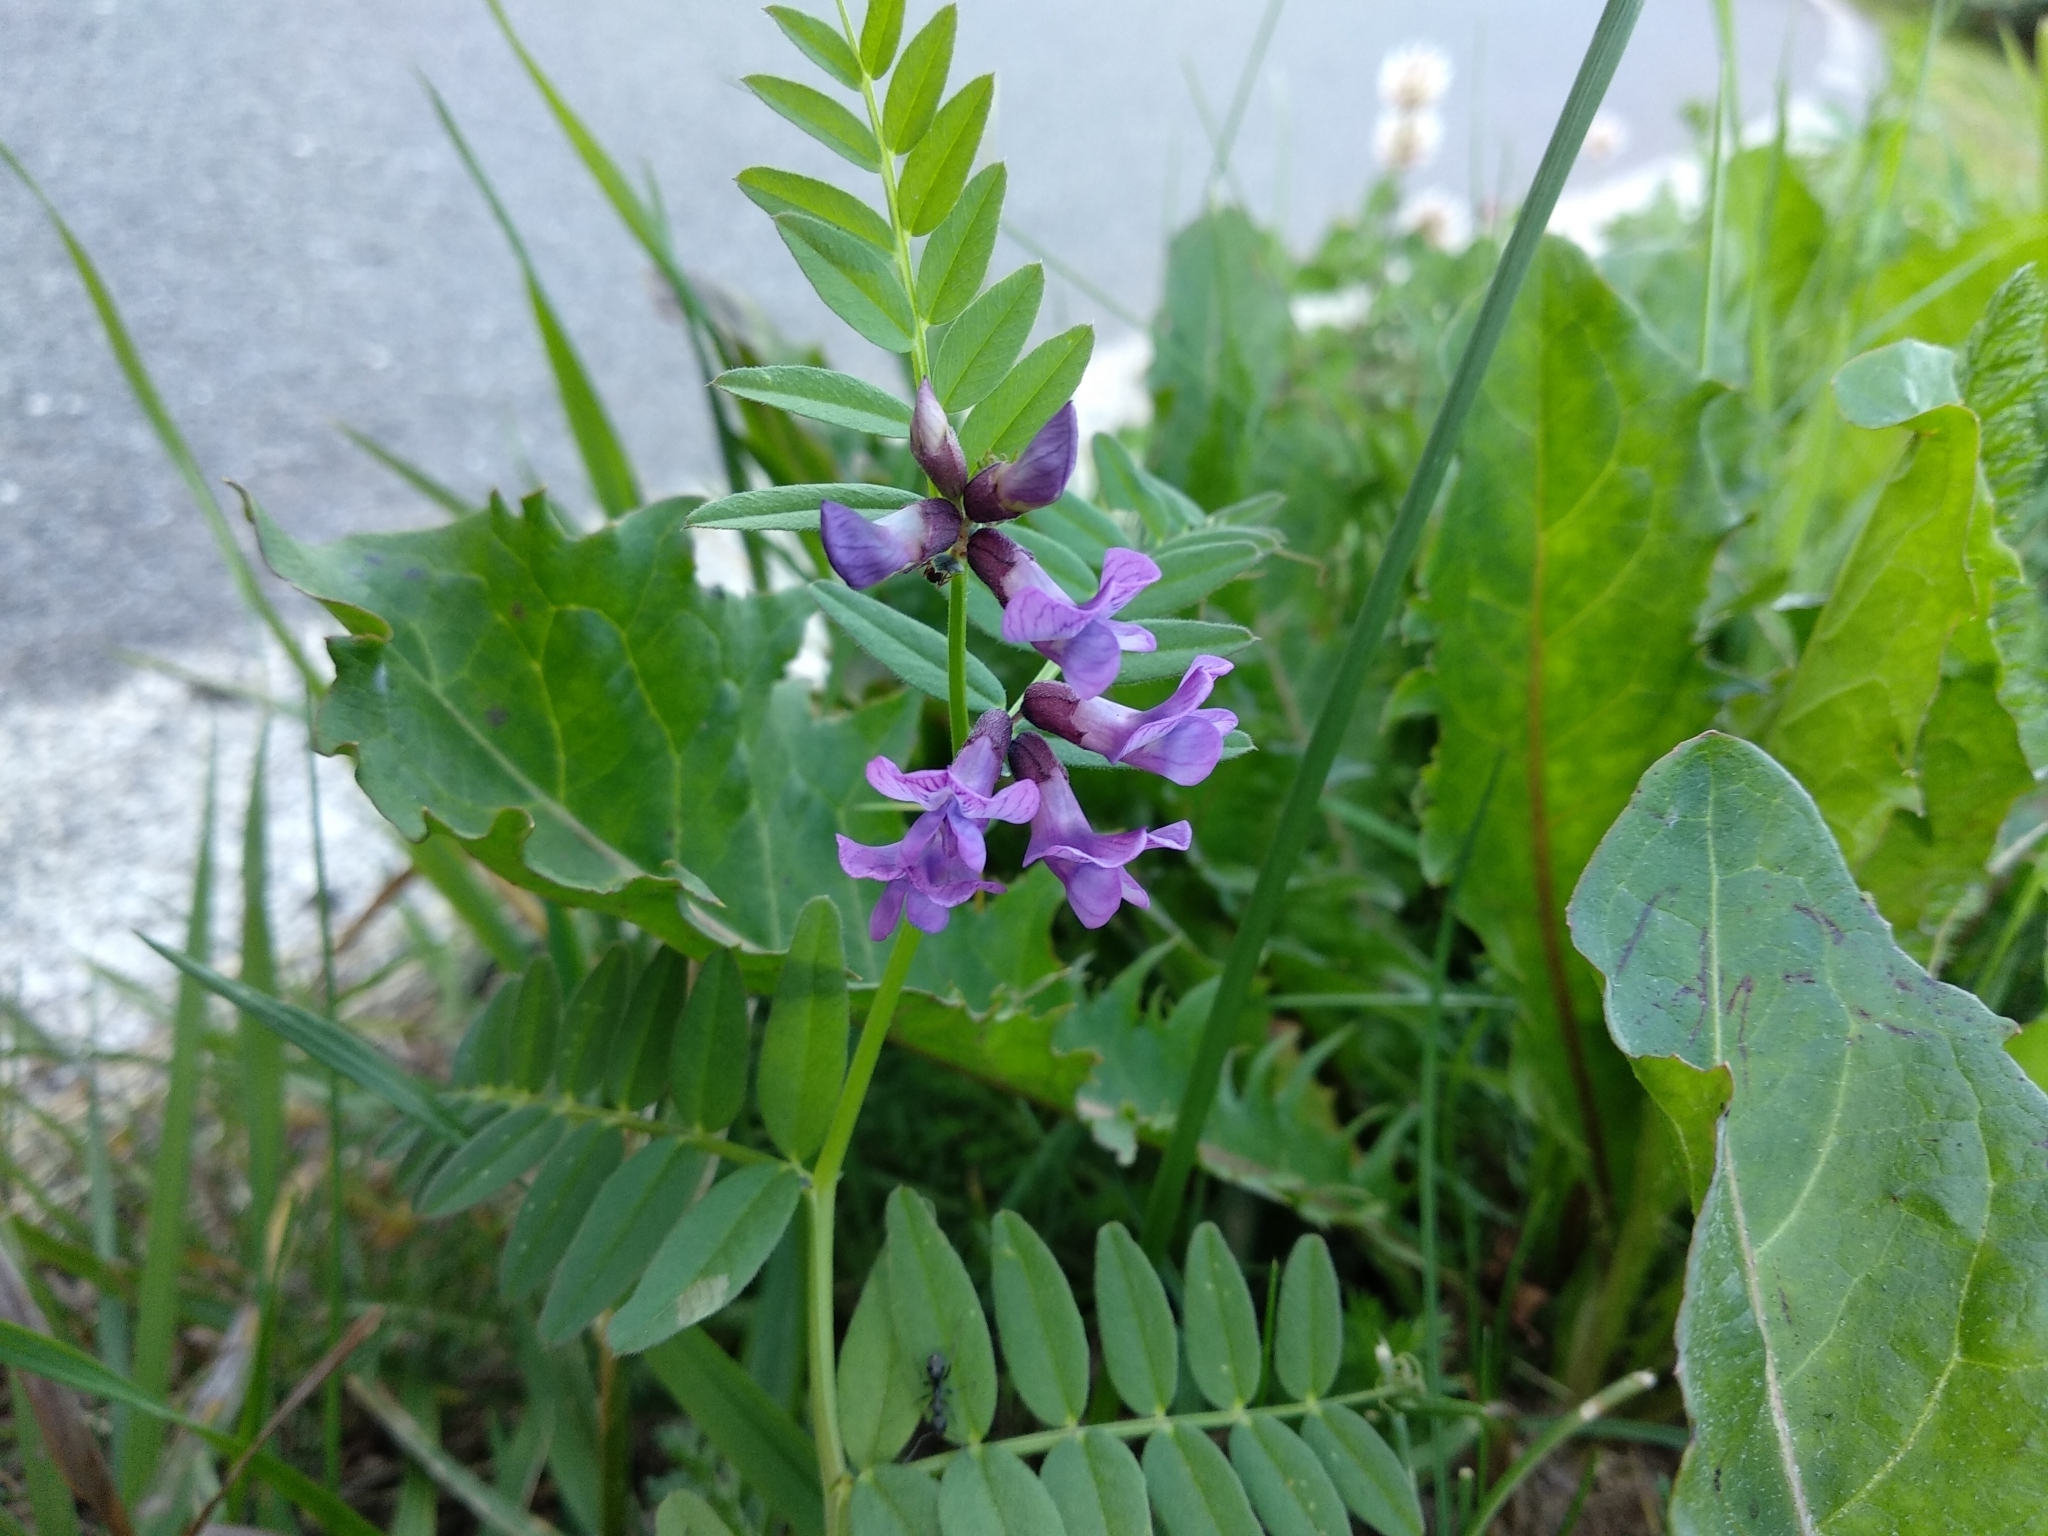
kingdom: Plantae
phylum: Tracheophyta
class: Magnoliopsida
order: Fabales
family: Fabaceae
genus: Vicia
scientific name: Vicia sepium
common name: Bush vetch
